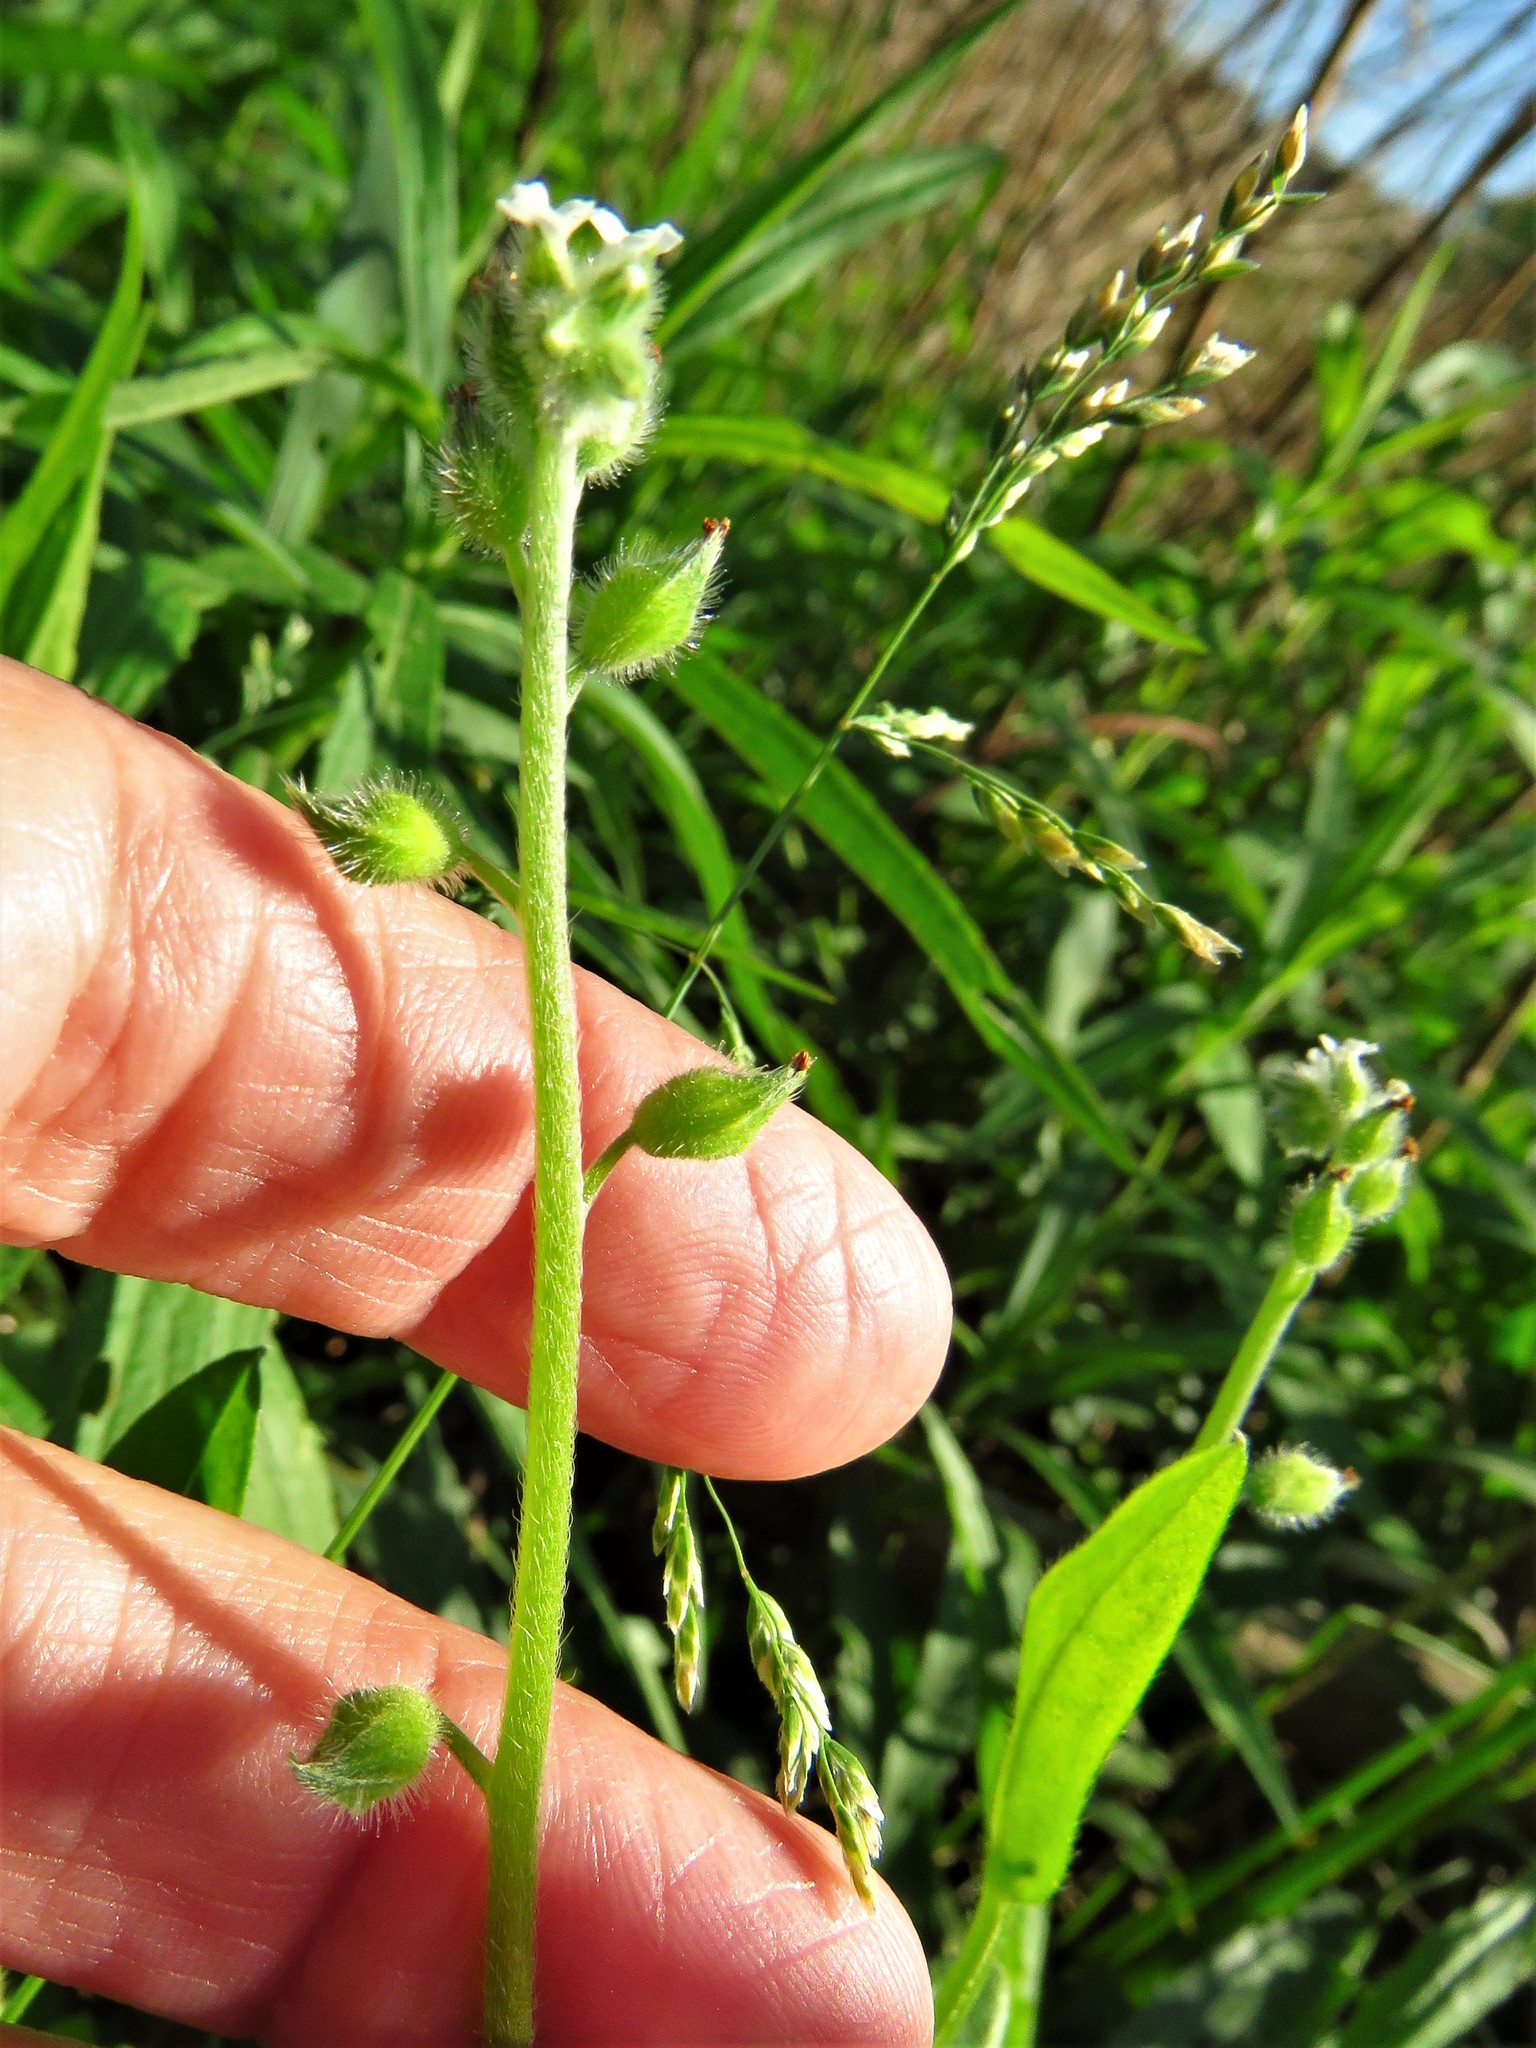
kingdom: Plantae
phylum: Tracheophyta
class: Magnoliopsida
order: Boraginales
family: Boraginaceae
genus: Myosotis
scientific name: Myosotis macrosperma
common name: Large-seed forget-me-not
